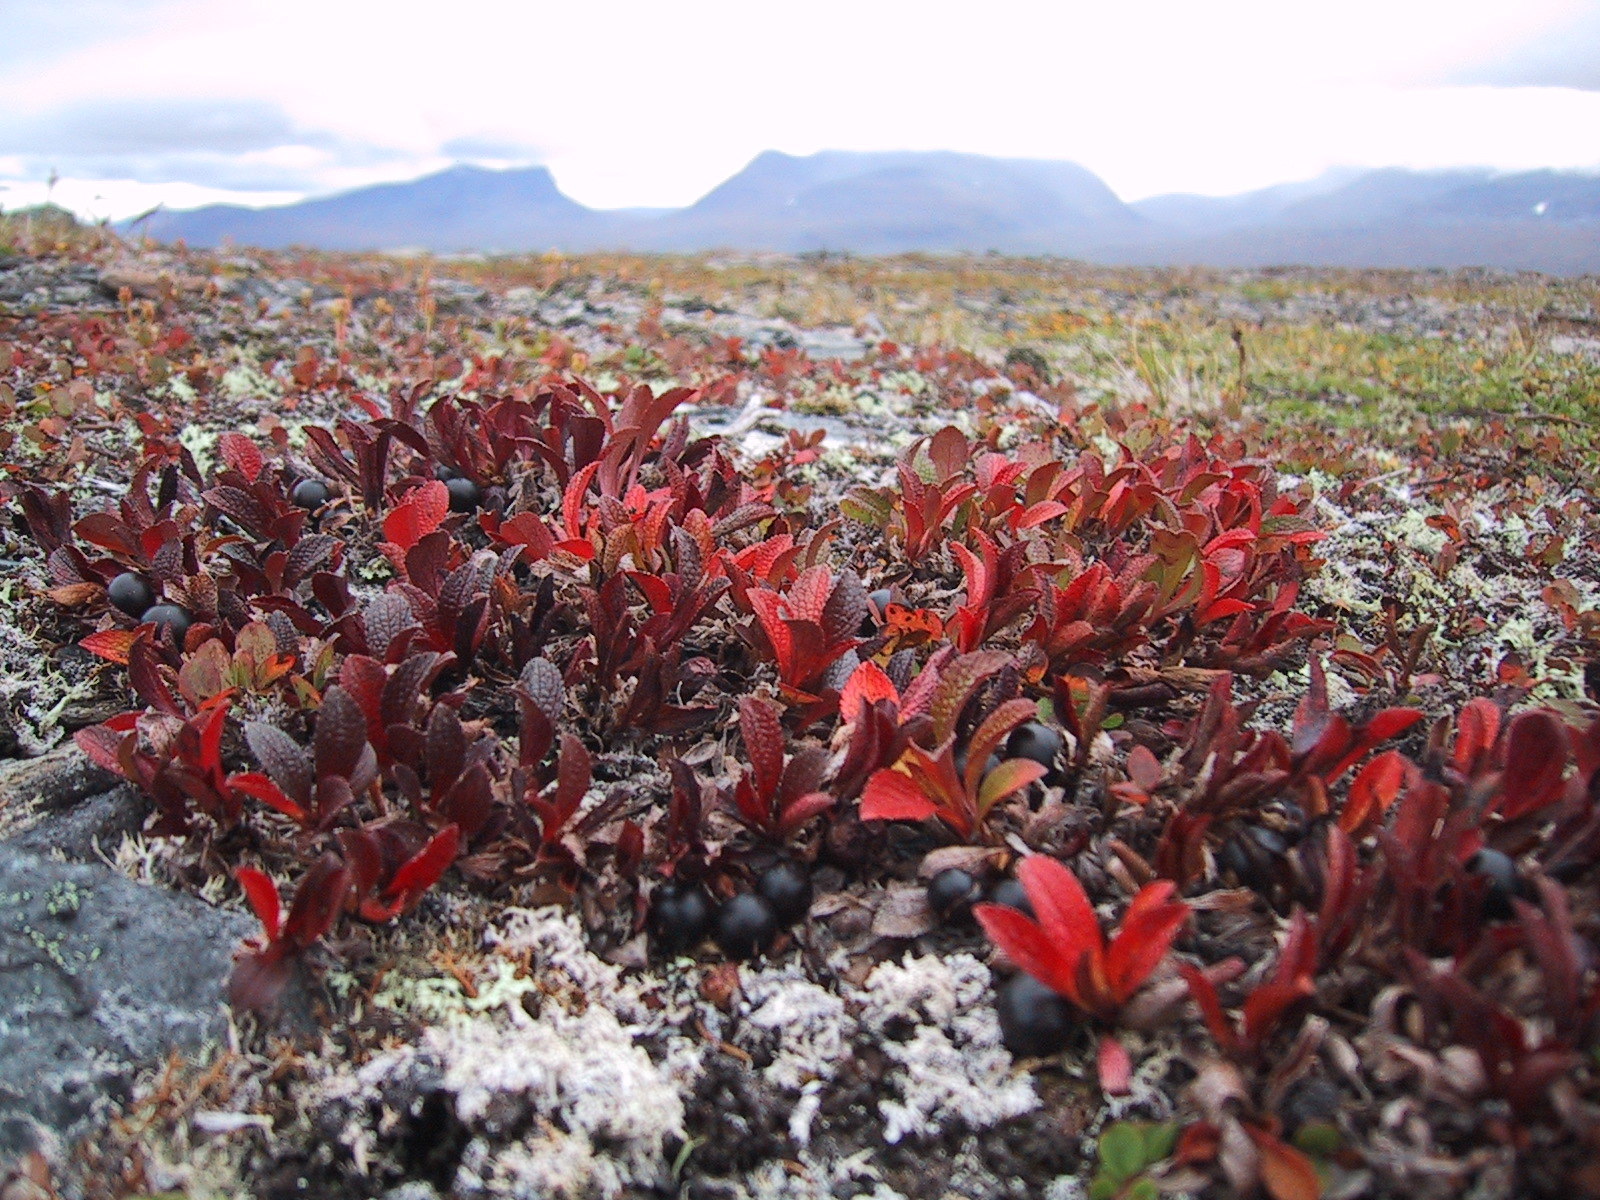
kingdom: Plantae
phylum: Tracheophyta
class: Magnoliopsida
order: Ericales
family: Ericaceae
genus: Arctostaphylos
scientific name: Arctostaphylos alpinus
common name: Alpine bearberry
